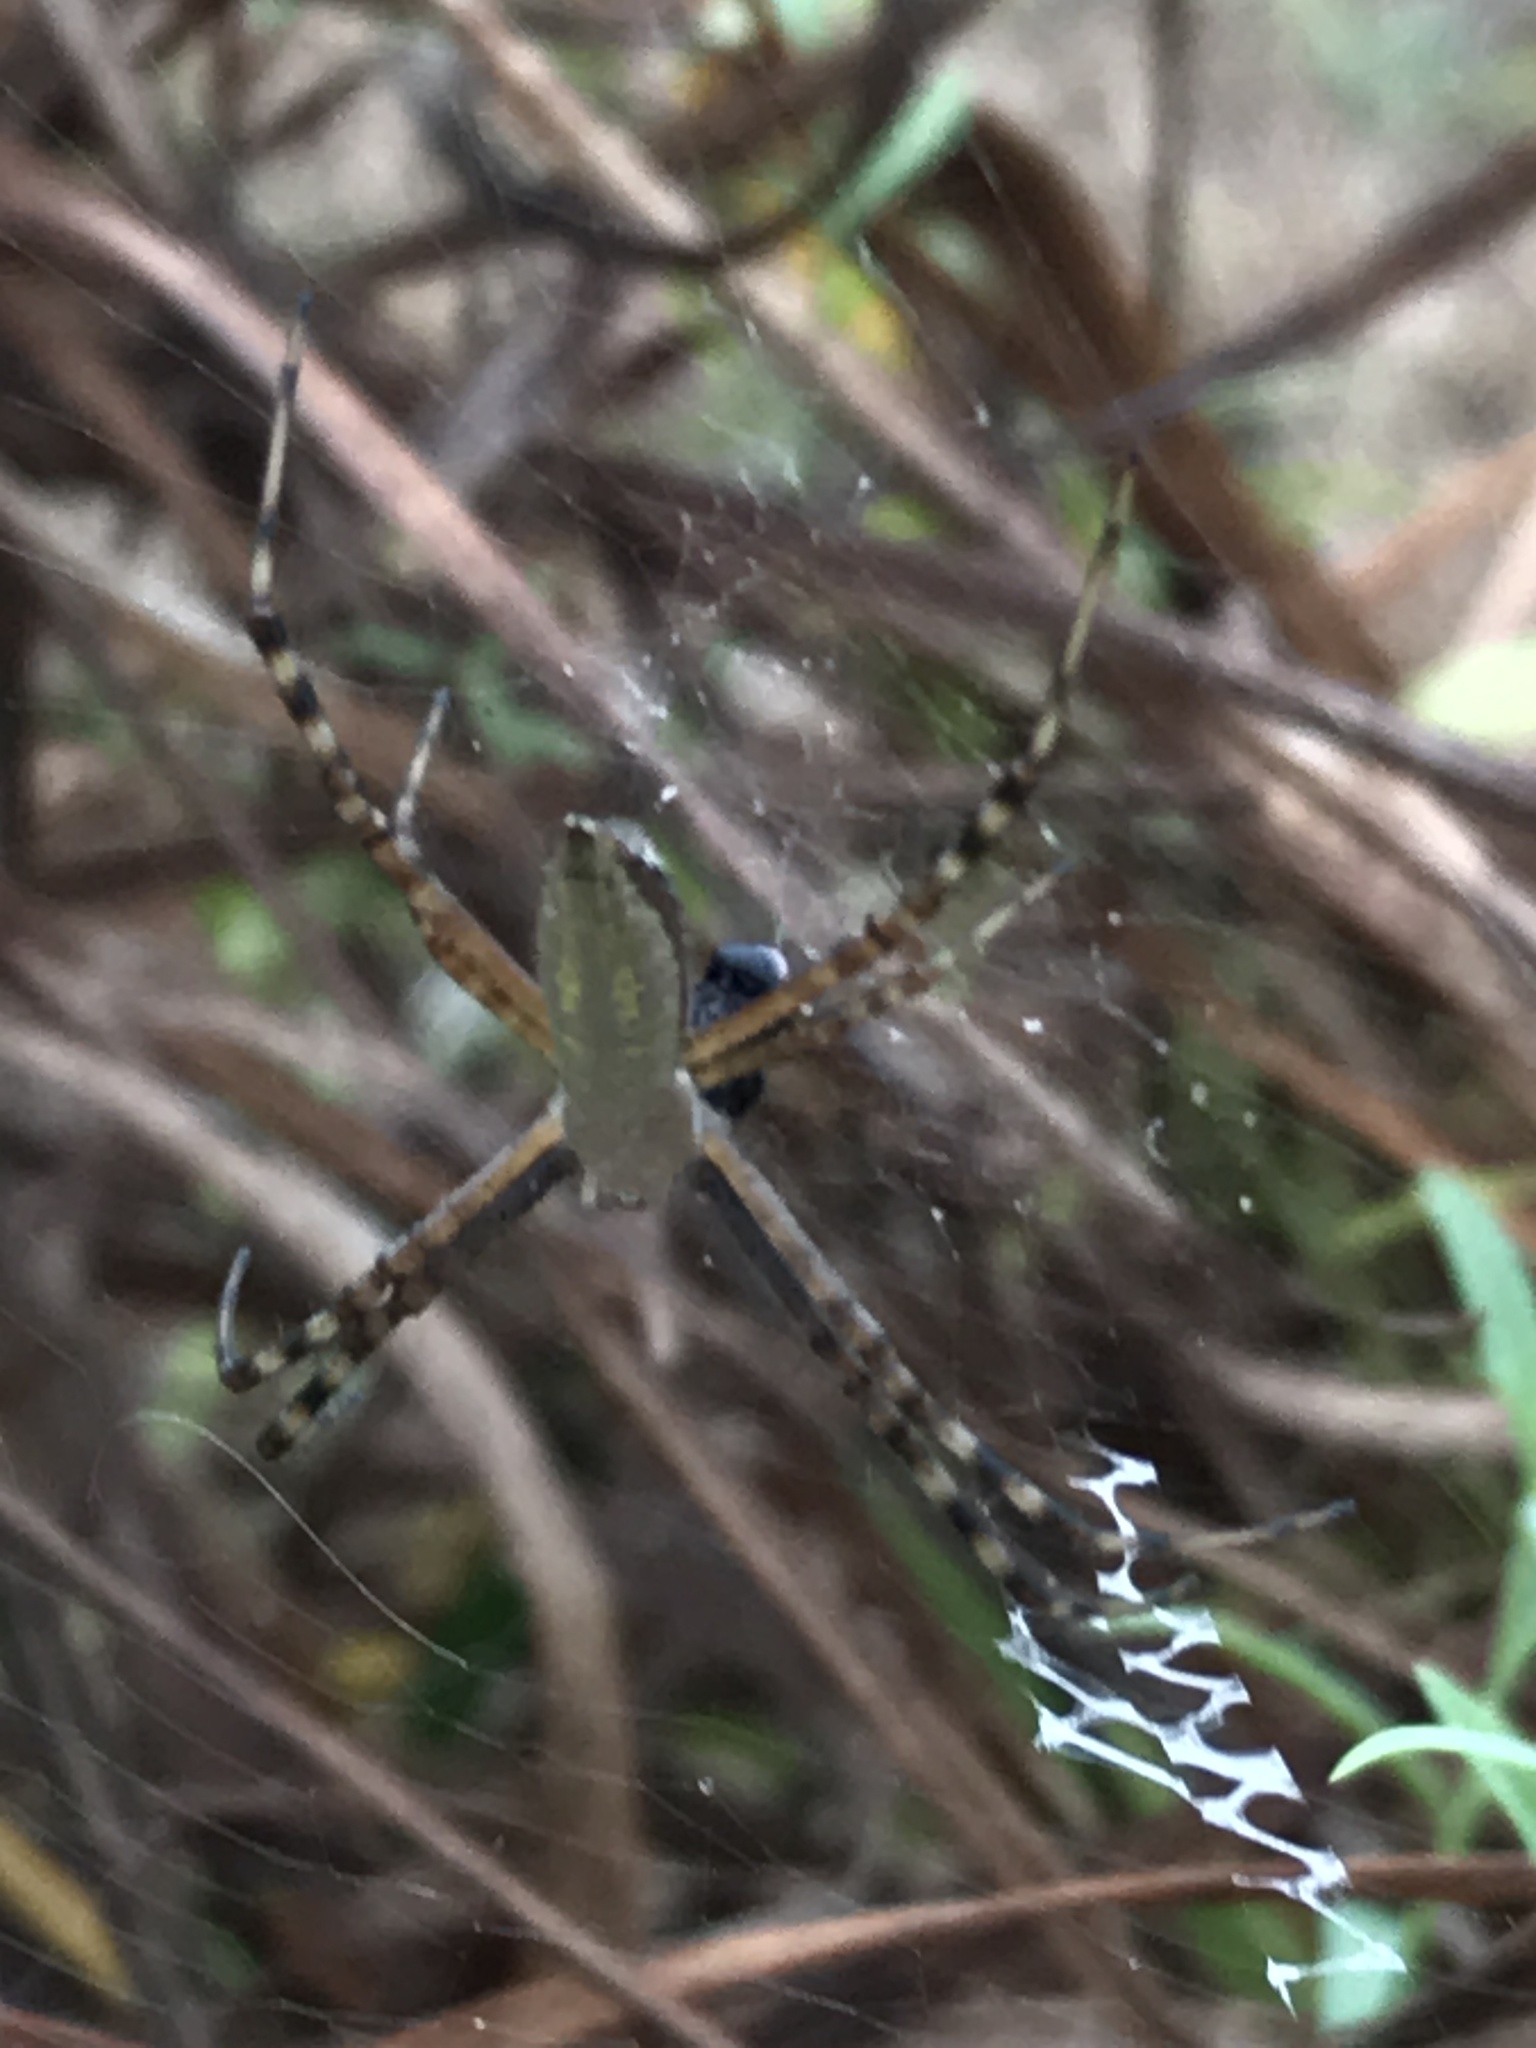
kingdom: Animalia
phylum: Arthropoda
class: Arachnida
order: Araneae
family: Araneidae
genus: Argiope
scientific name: Argiope trifasciata
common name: Banded garden spider
